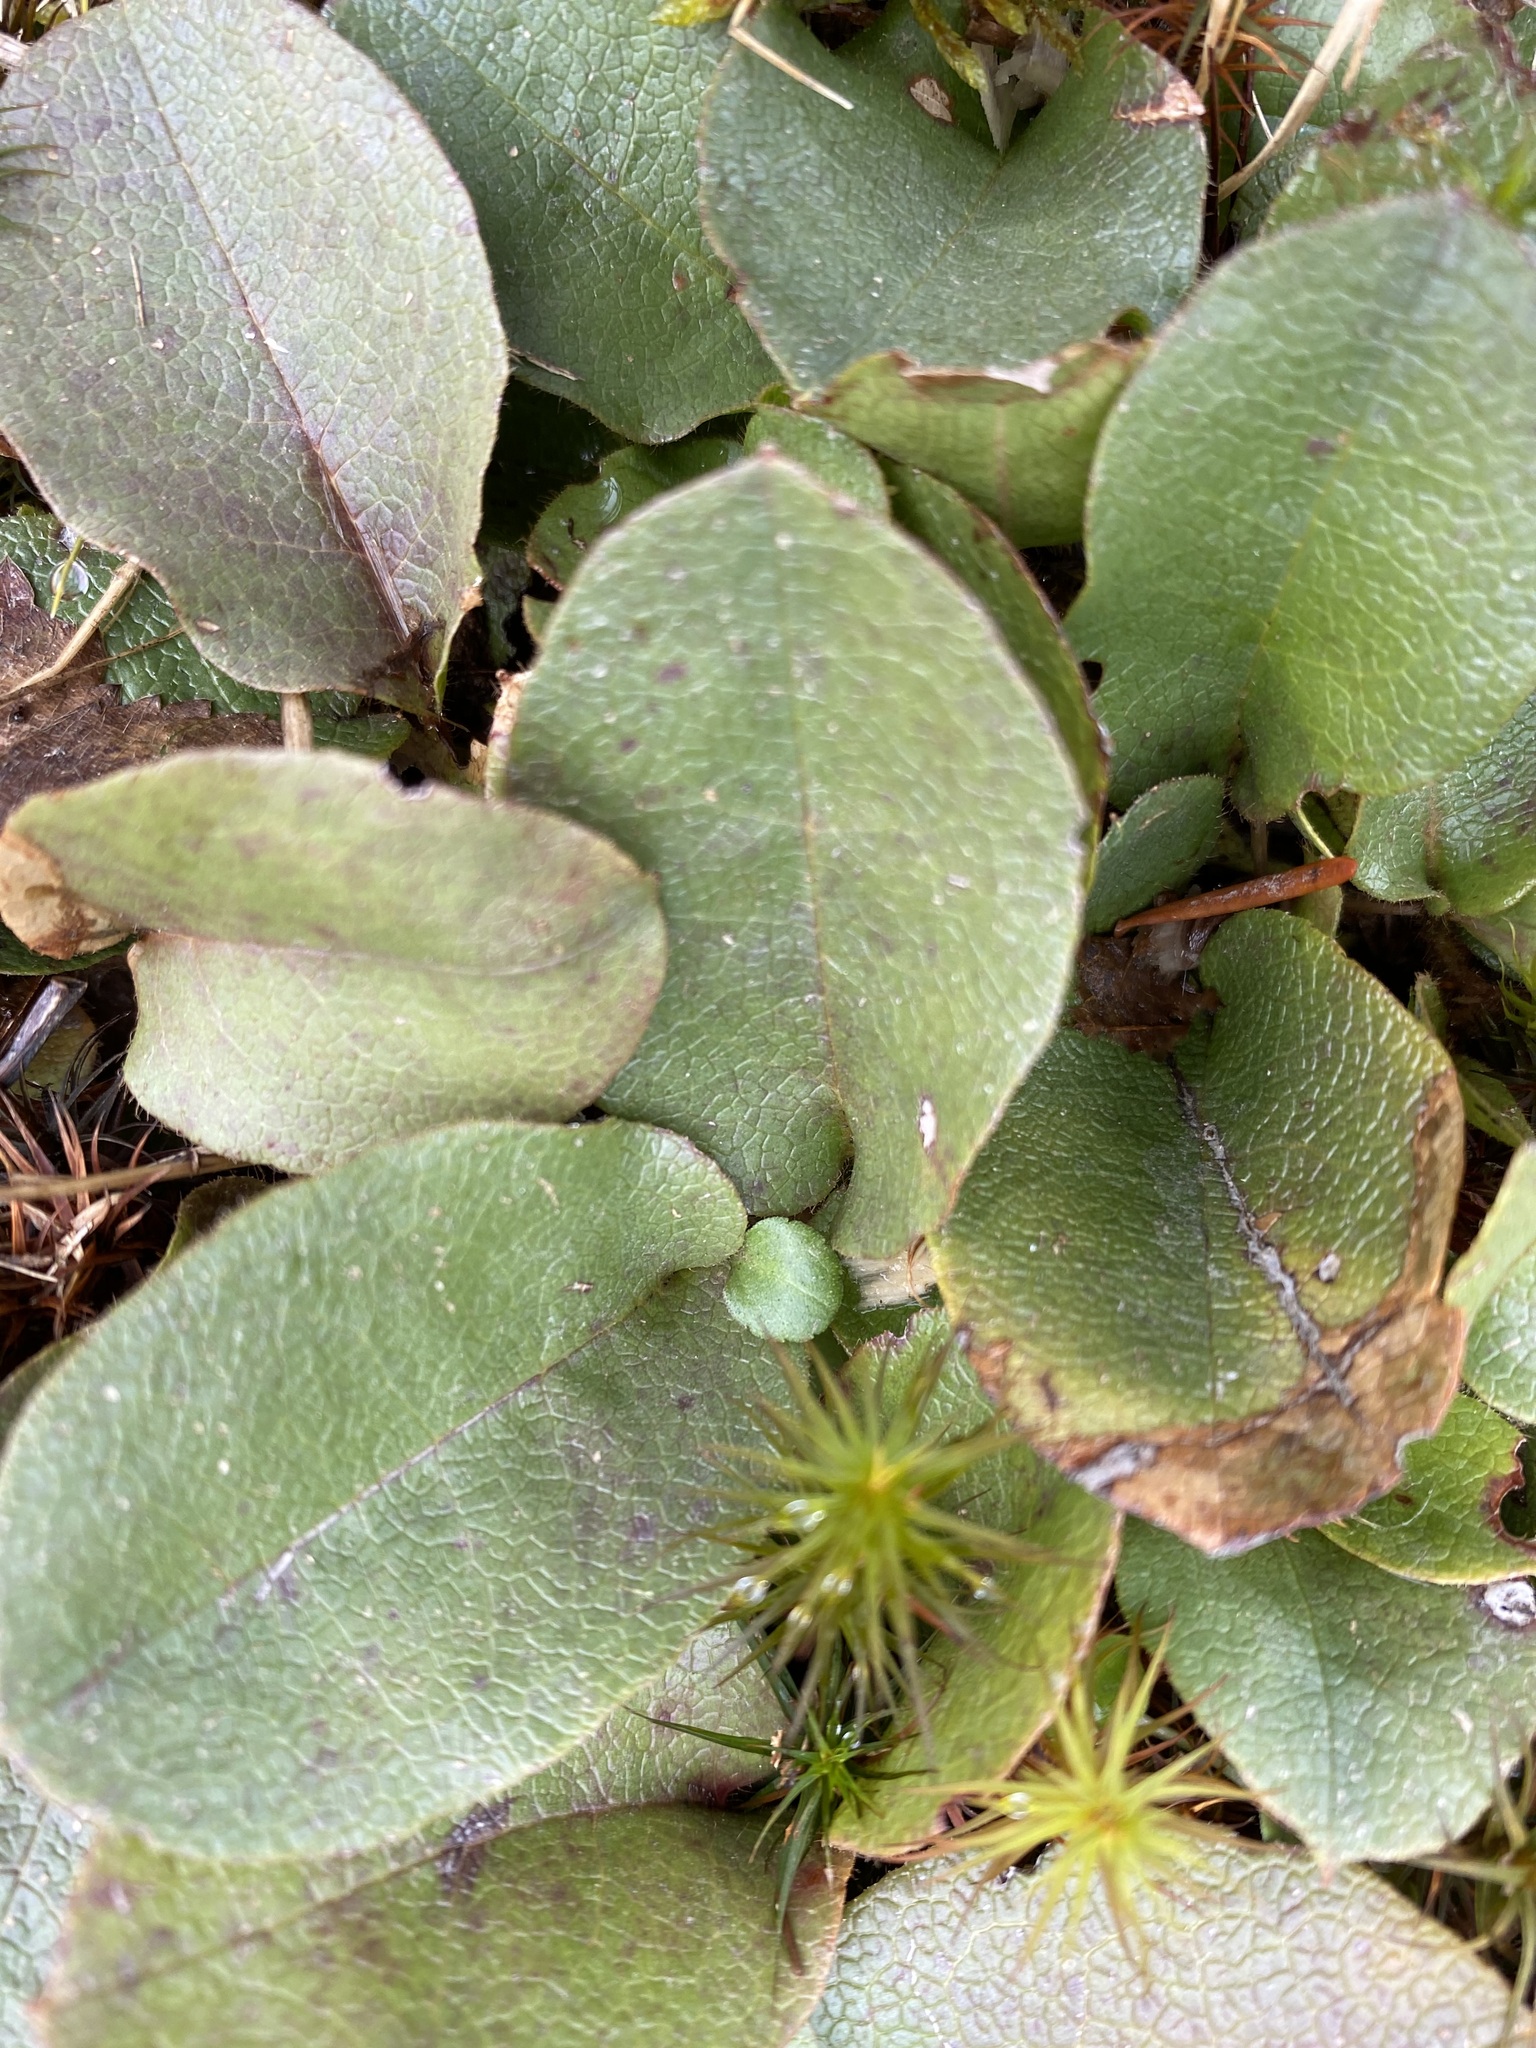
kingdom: Plantae
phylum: Tracheophyta
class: Magnoliopsida
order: Ericales
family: Ericaceae
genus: Epigaea
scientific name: Epigaea repens
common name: Gravelroot
